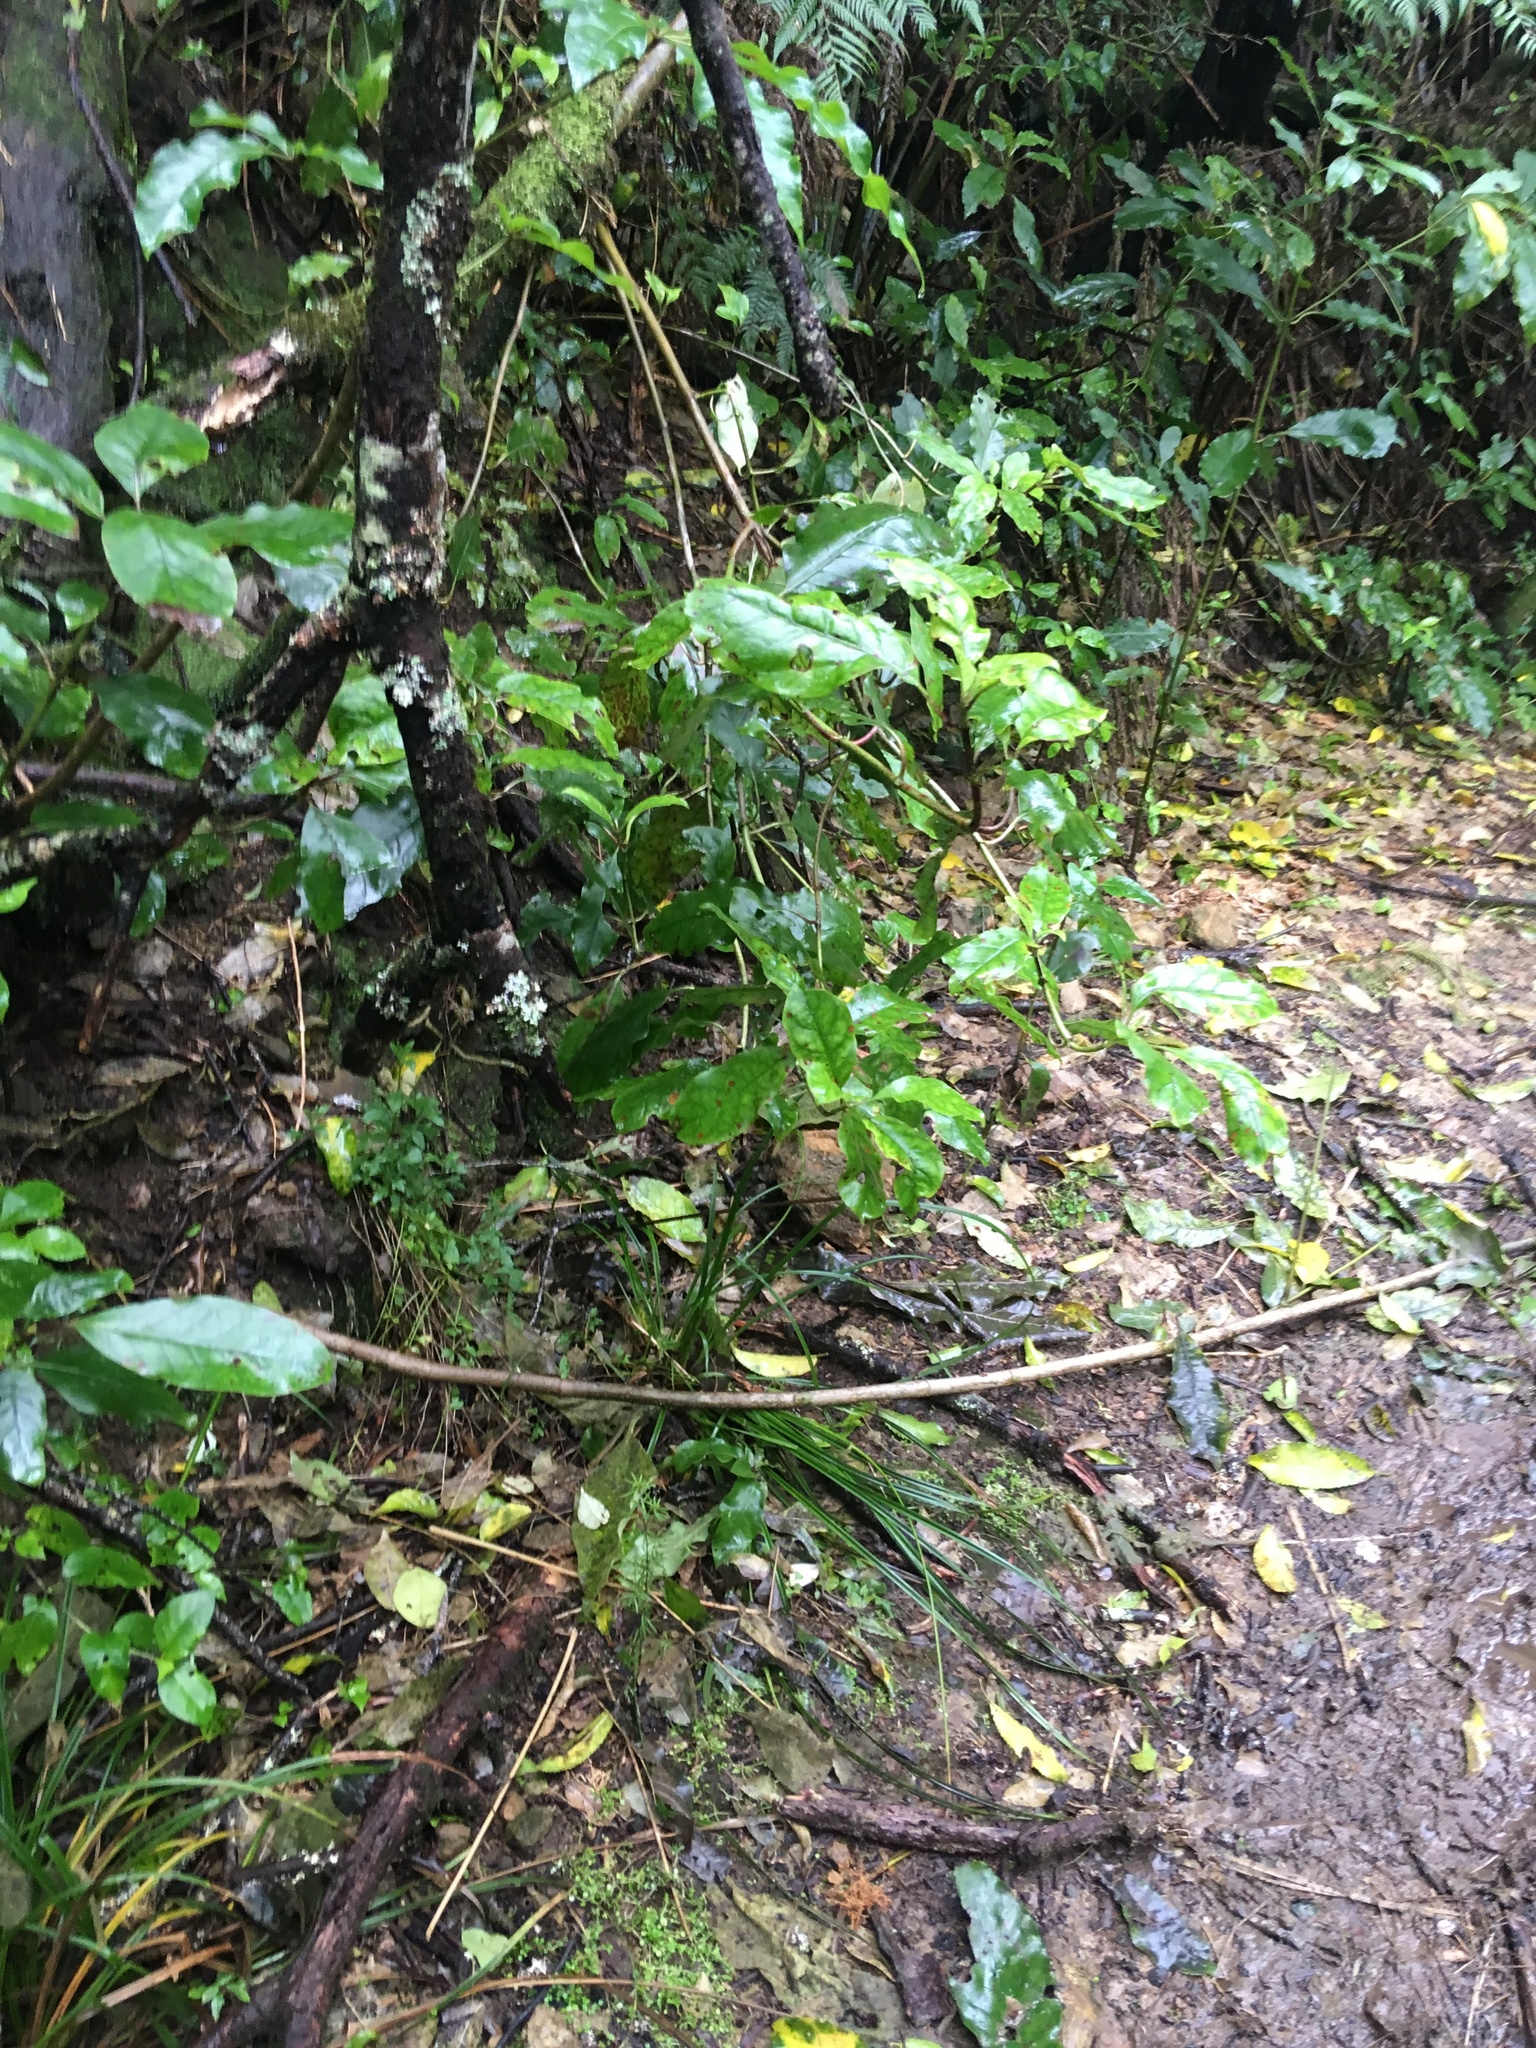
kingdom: Plantae
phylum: Tracheophyta
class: Magnoliopsida
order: Gentianales
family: Rubiaceae
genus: Coprosma
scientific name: Coprosma autumnalis
